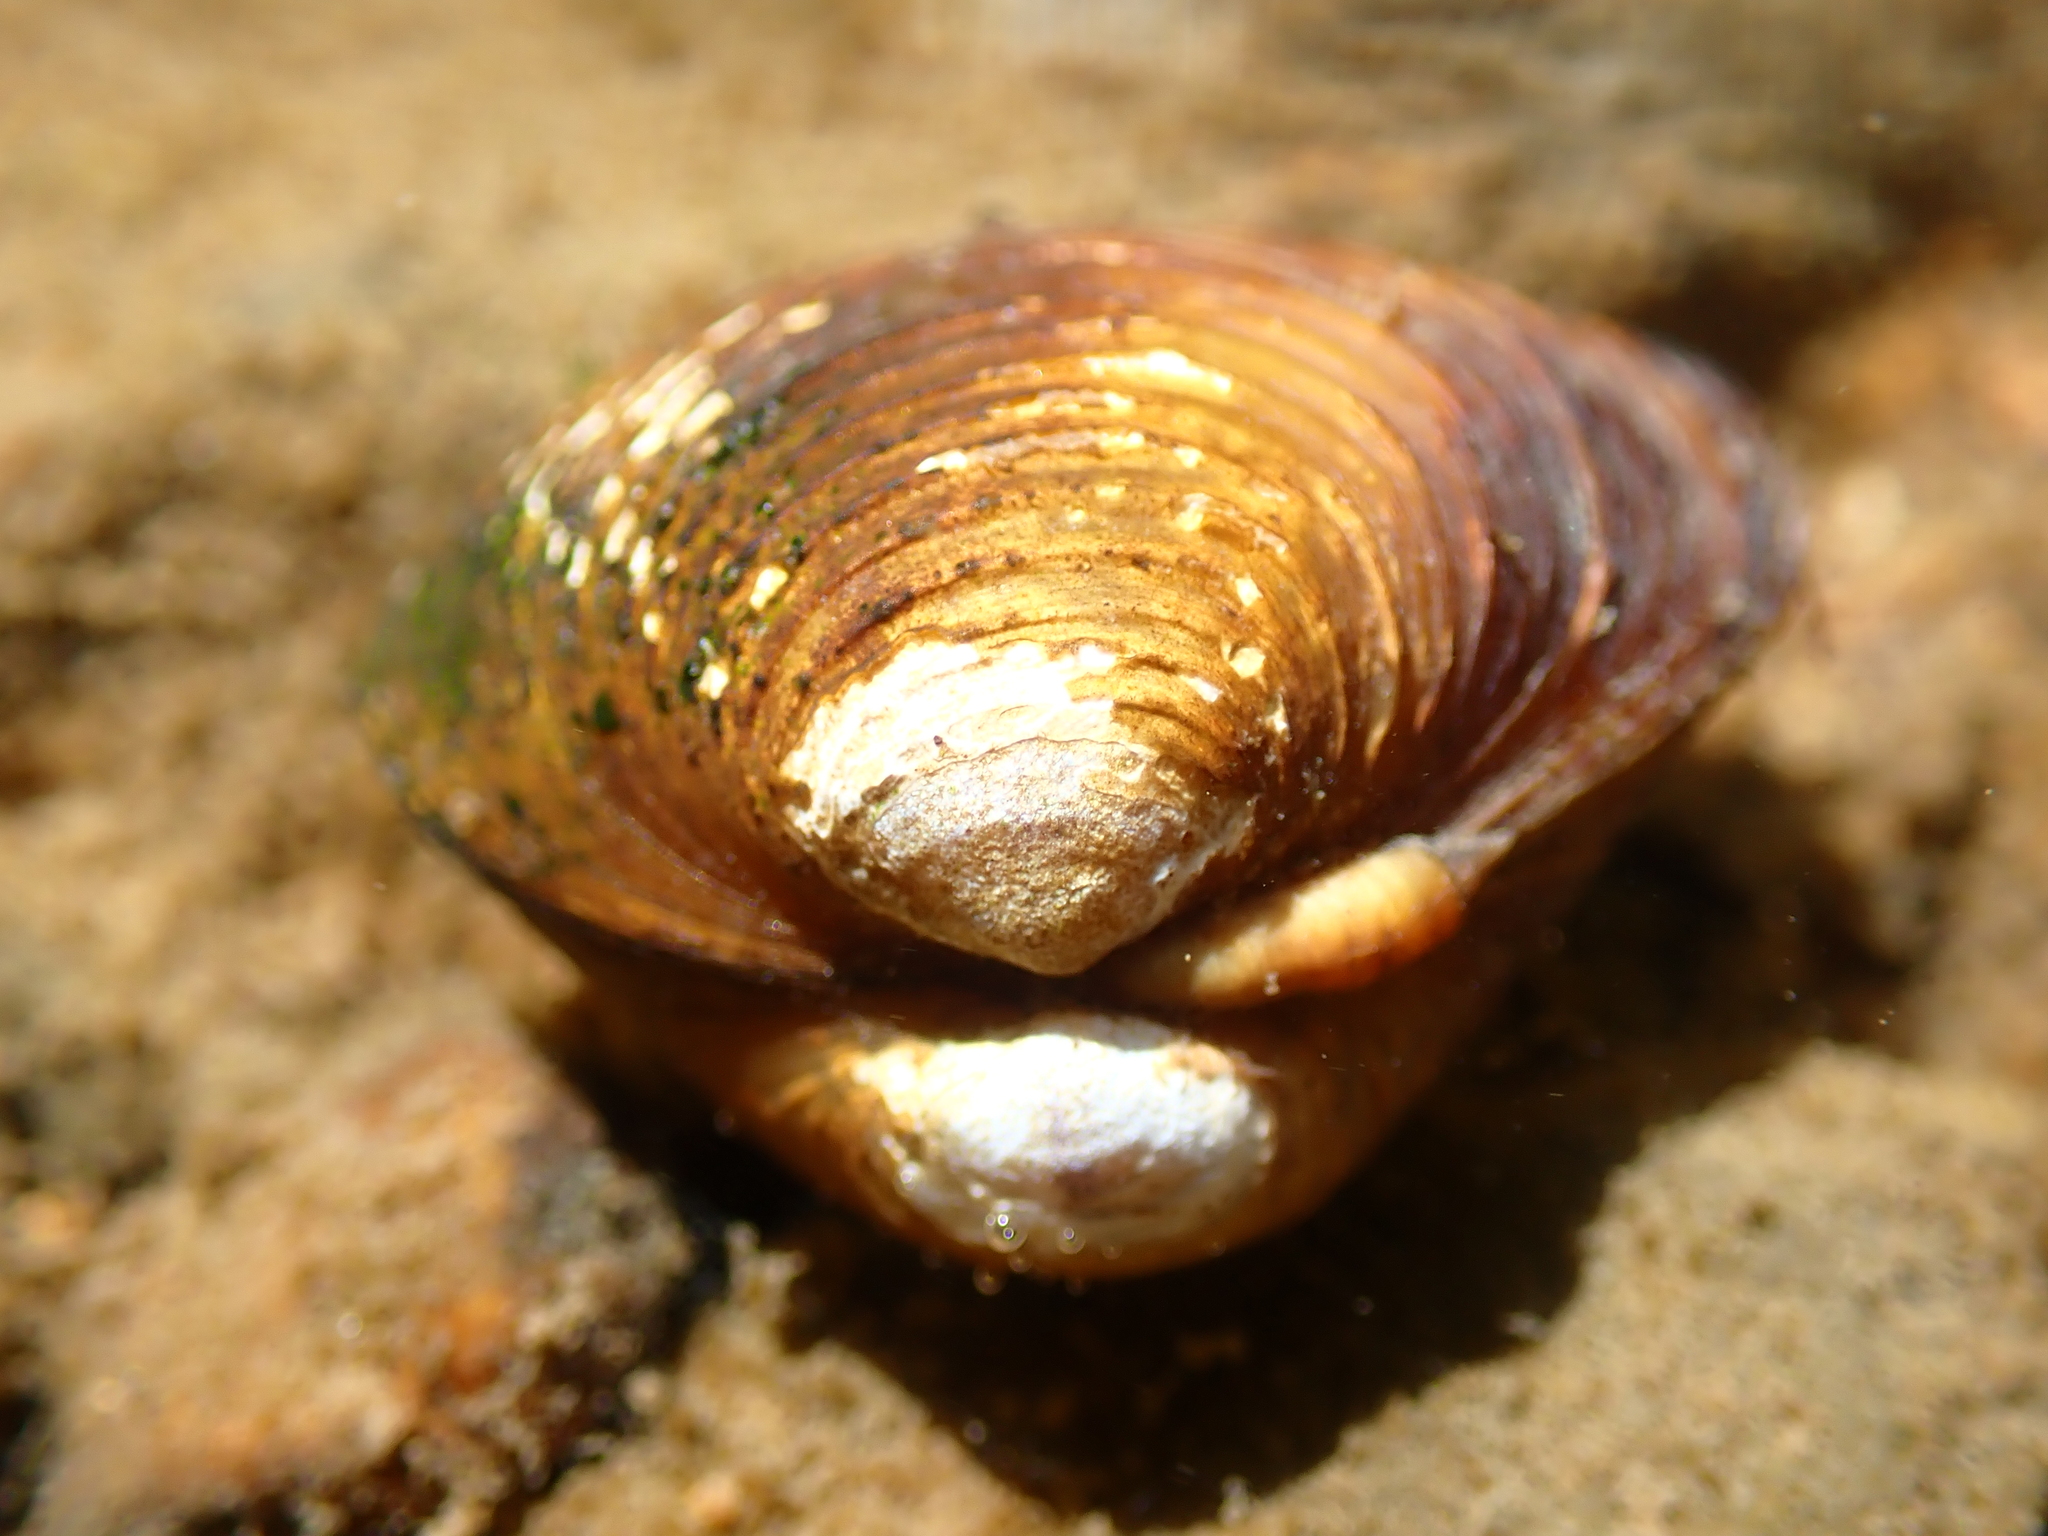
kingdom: Animalia
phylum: Mollusca
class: Bivalvia
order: Venerida
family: Cyrenidae
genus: Corbicula
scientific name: Corbicula fluminea
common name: Asian clam
